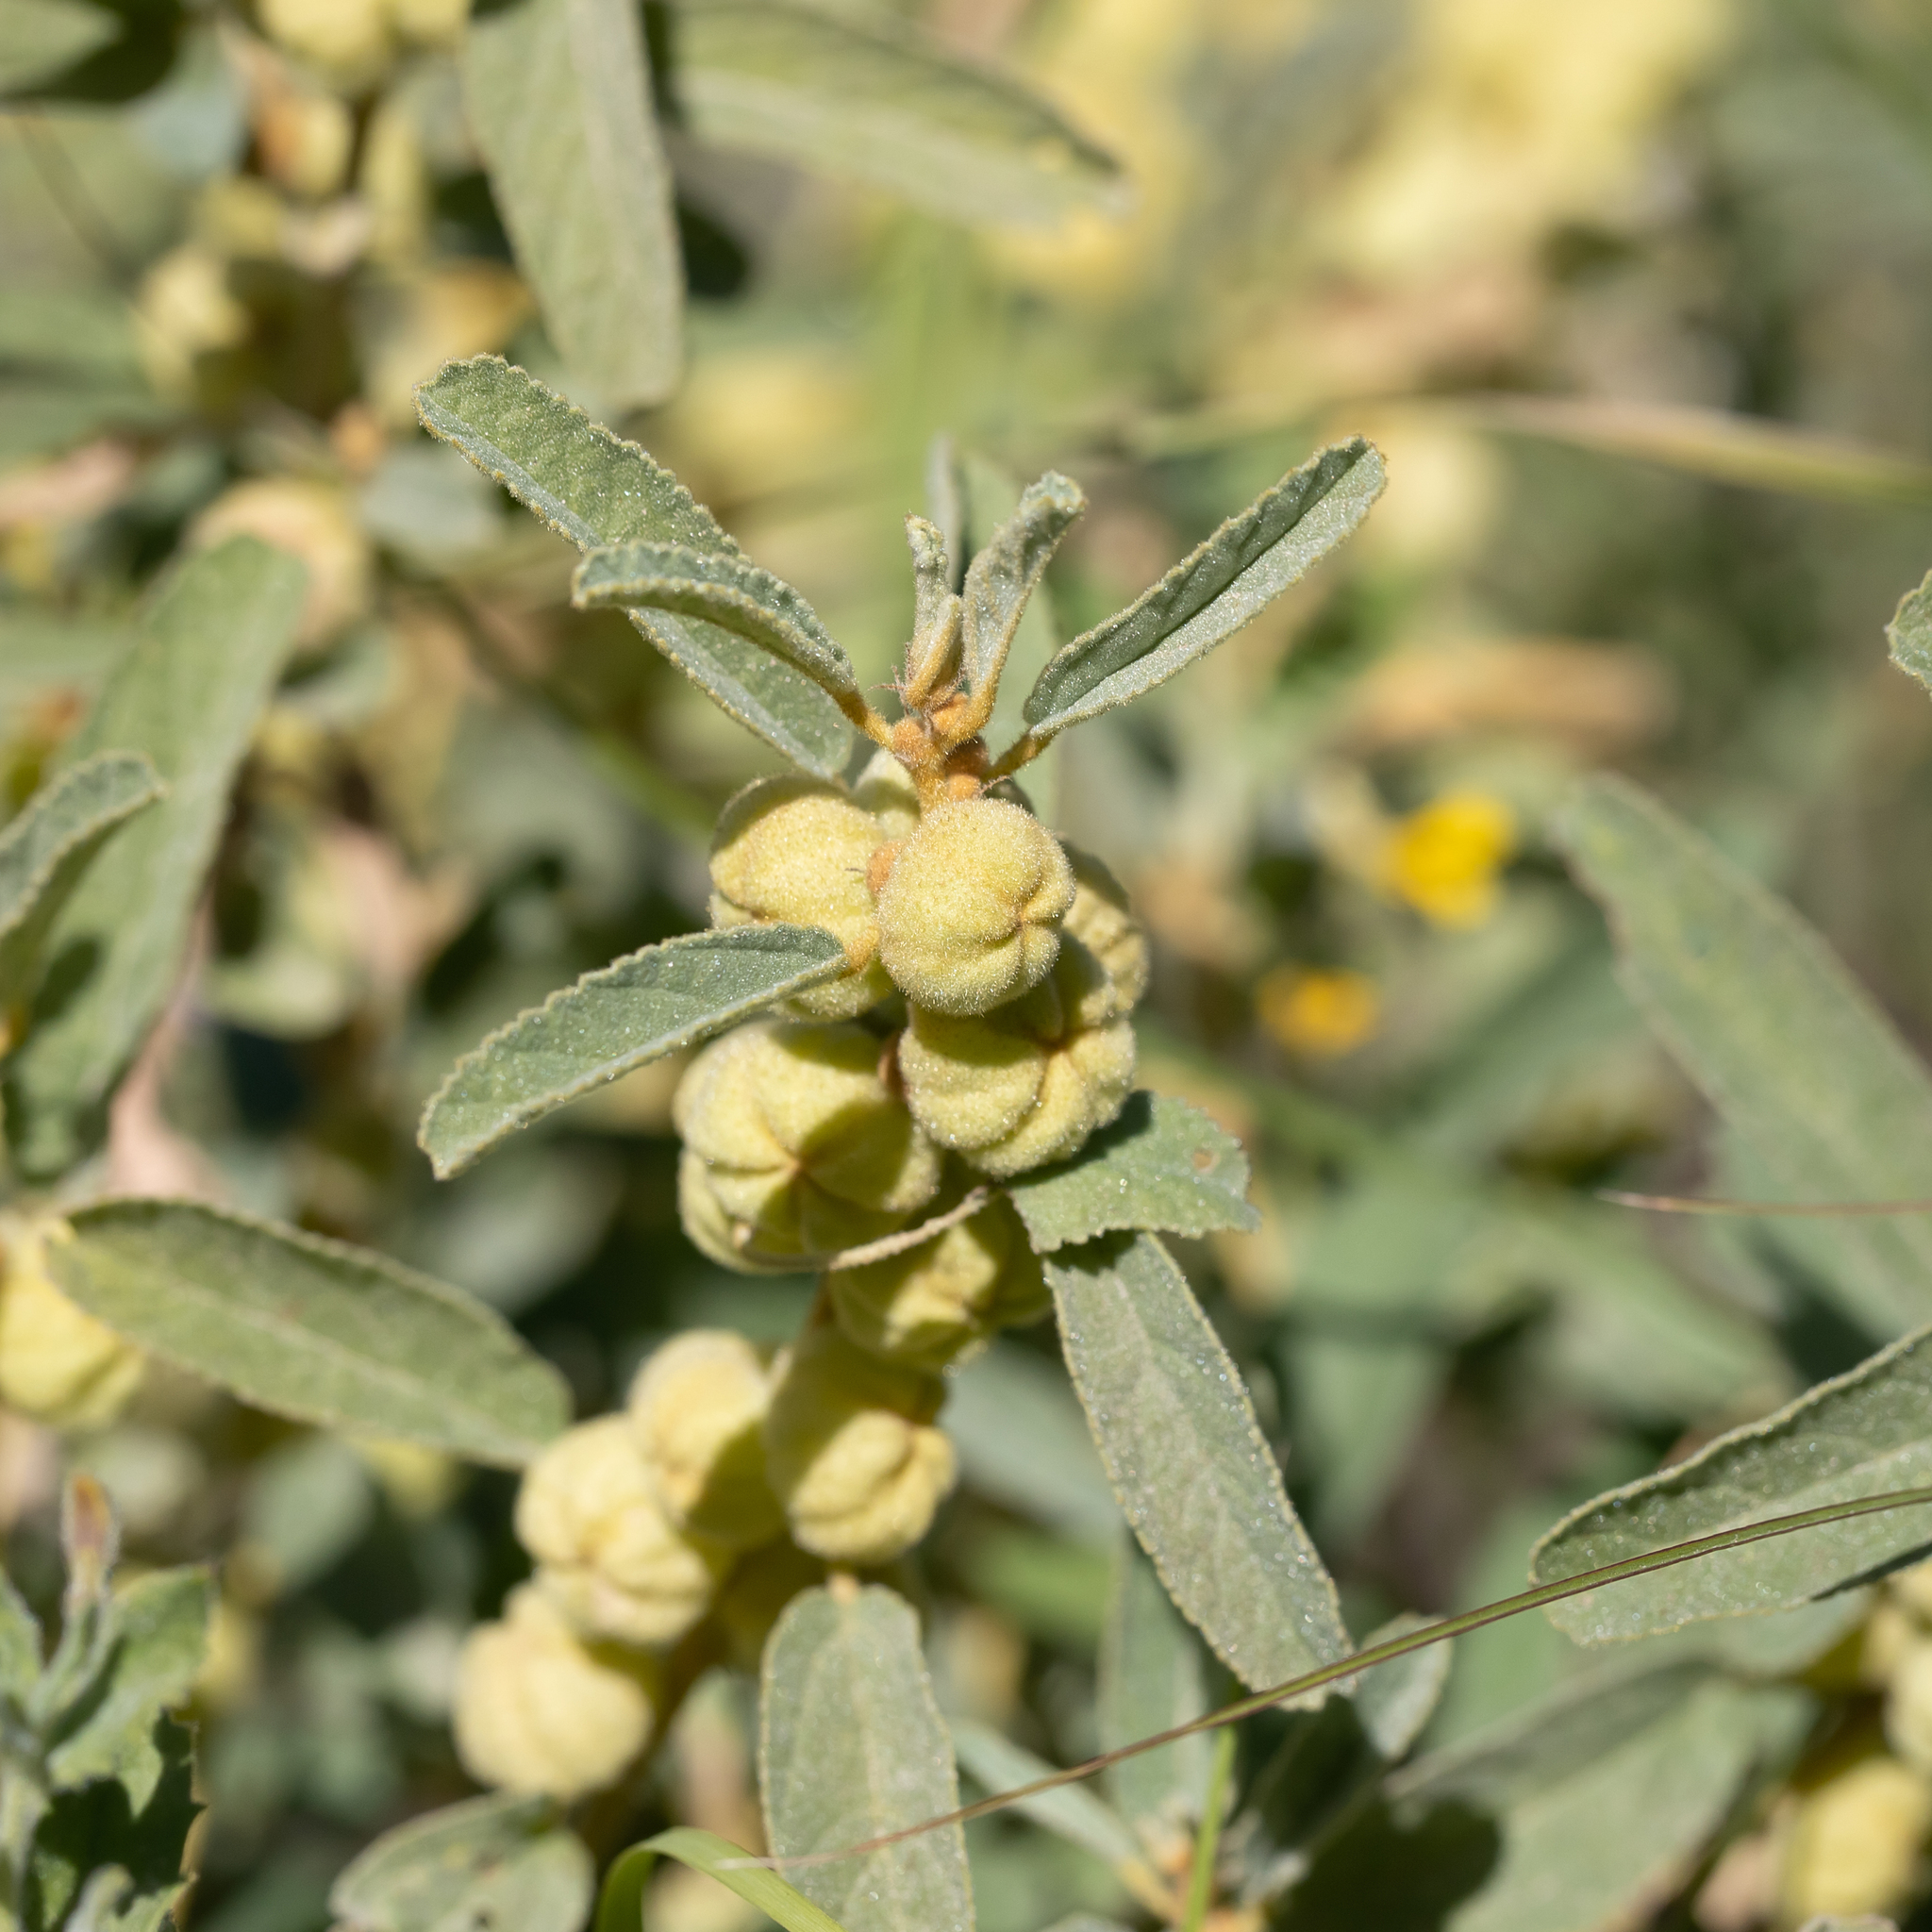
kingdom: Plantae
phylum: Tracheophyta
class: Magnoliopsida
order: Malvales
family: Malvaceae
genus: Sida
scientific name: Sida cleisocalyx
